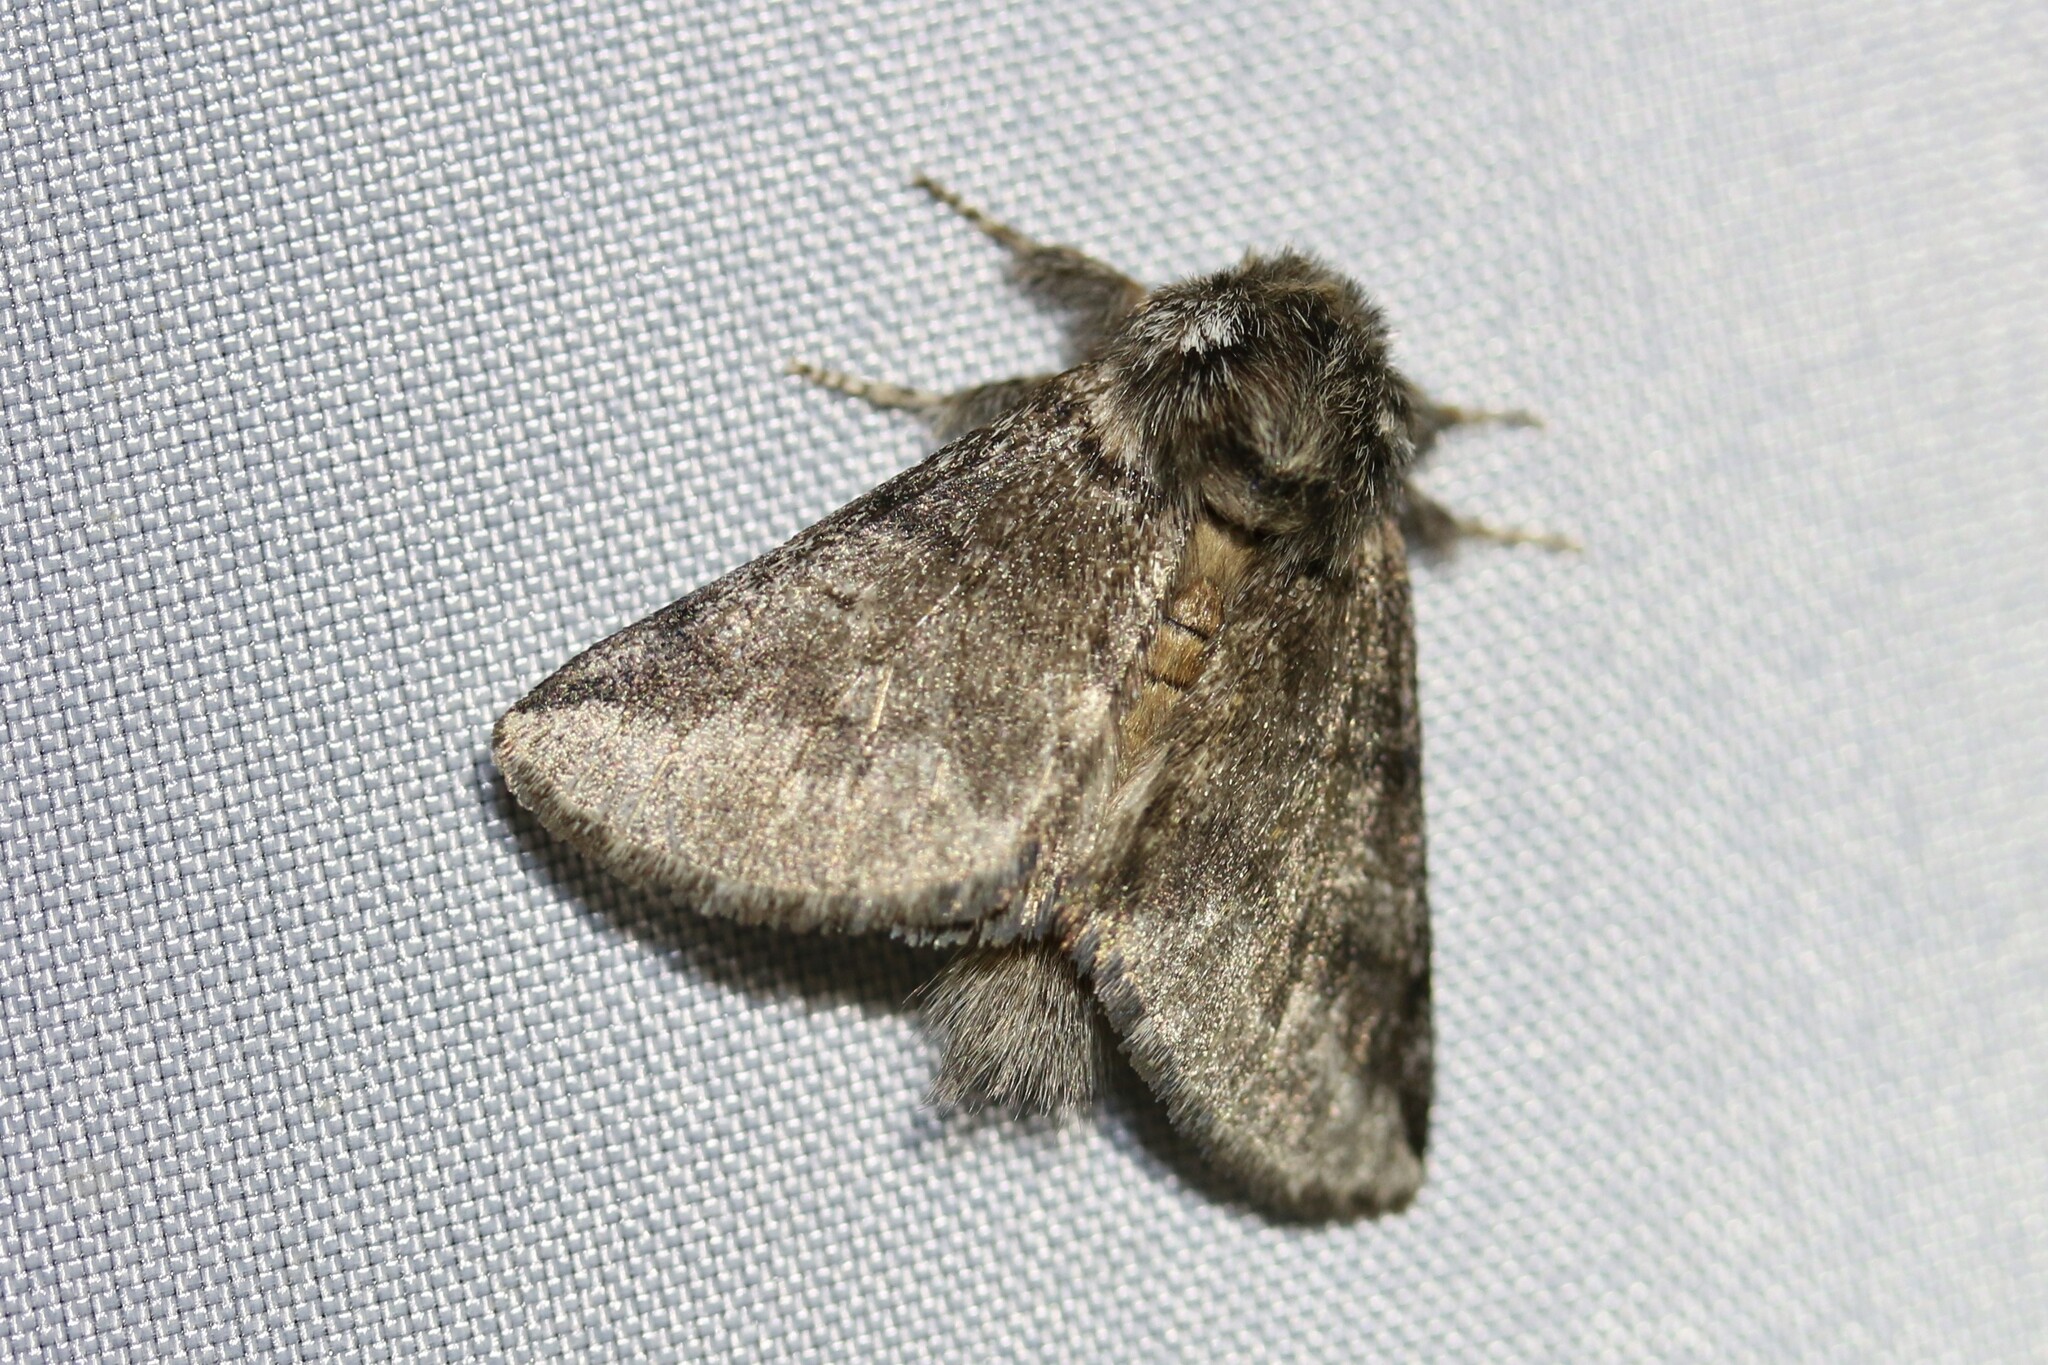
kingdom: Animalia
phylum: Arthropoda
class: Insecta
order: Lepidoptera
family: Notodontidae
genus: Thaumetopoea
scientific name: Thaumetopoea processionea
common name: Oak processionea
